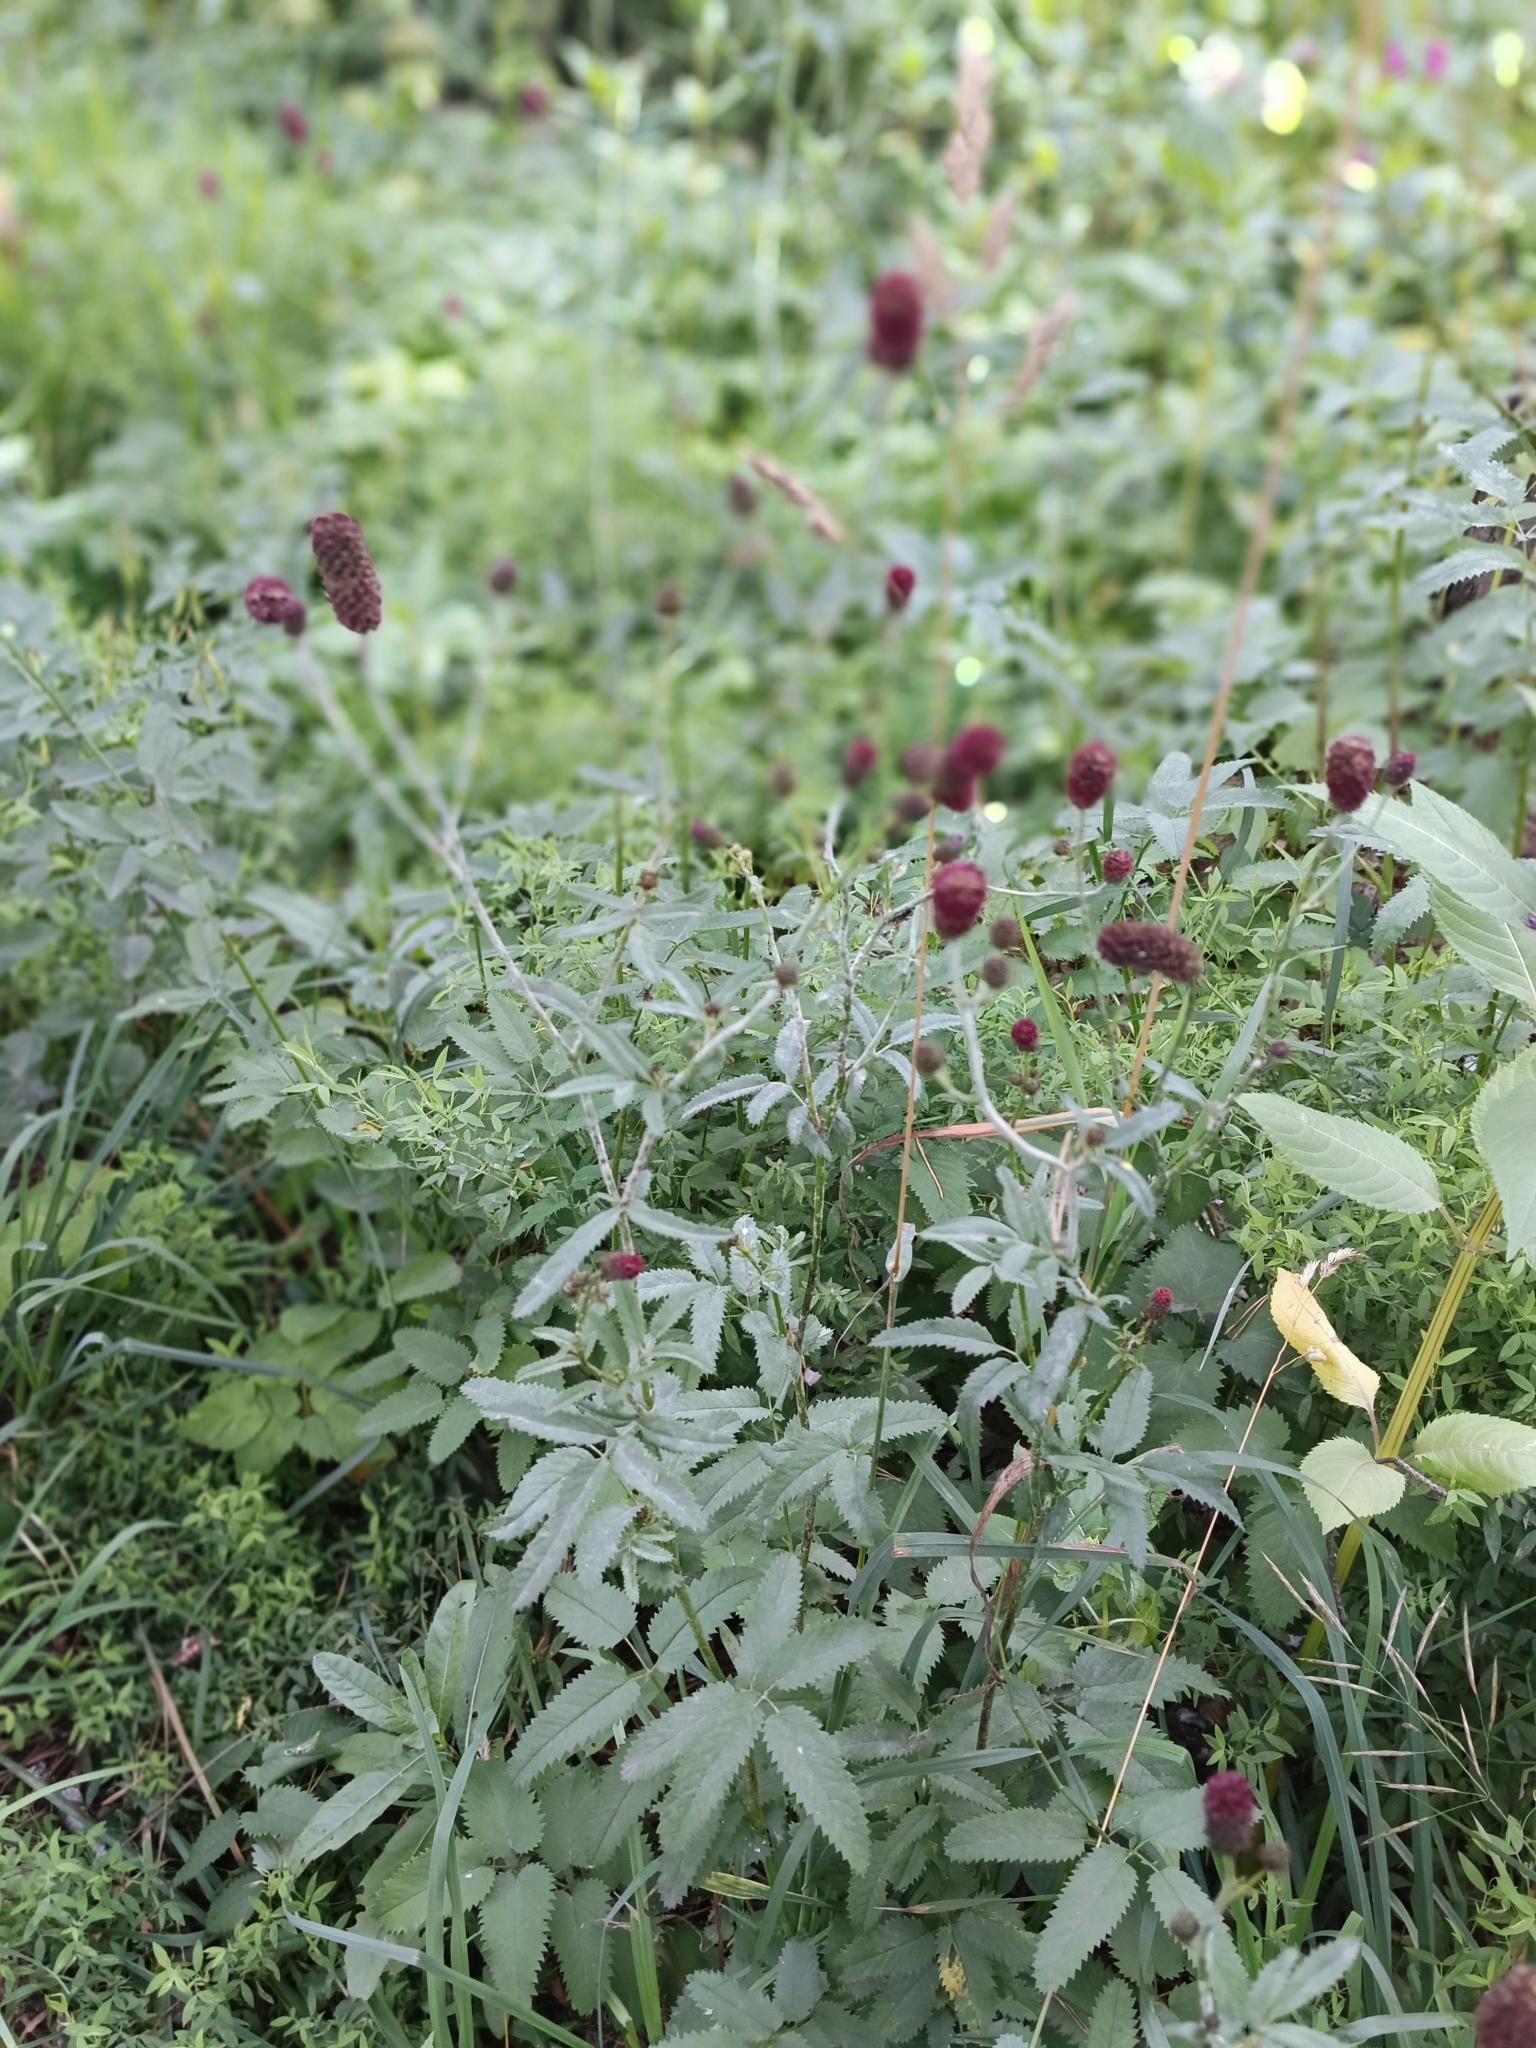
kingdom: Plantae
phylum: Tracheophyta
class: Magnoliopsida
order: Rosales
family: Rosaceae
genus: Sanguisorba
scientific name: Sanguisorba officinalis
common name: Great burnet
